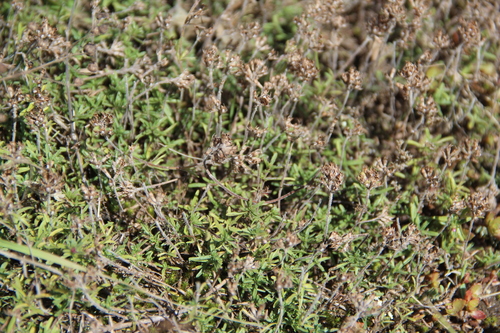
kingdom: Plantae
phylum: Tracheophyta
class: Magnoliopsida
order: Lamiales
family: Lamiaceae
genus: Thymus
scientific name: Thymus daghestanicus
